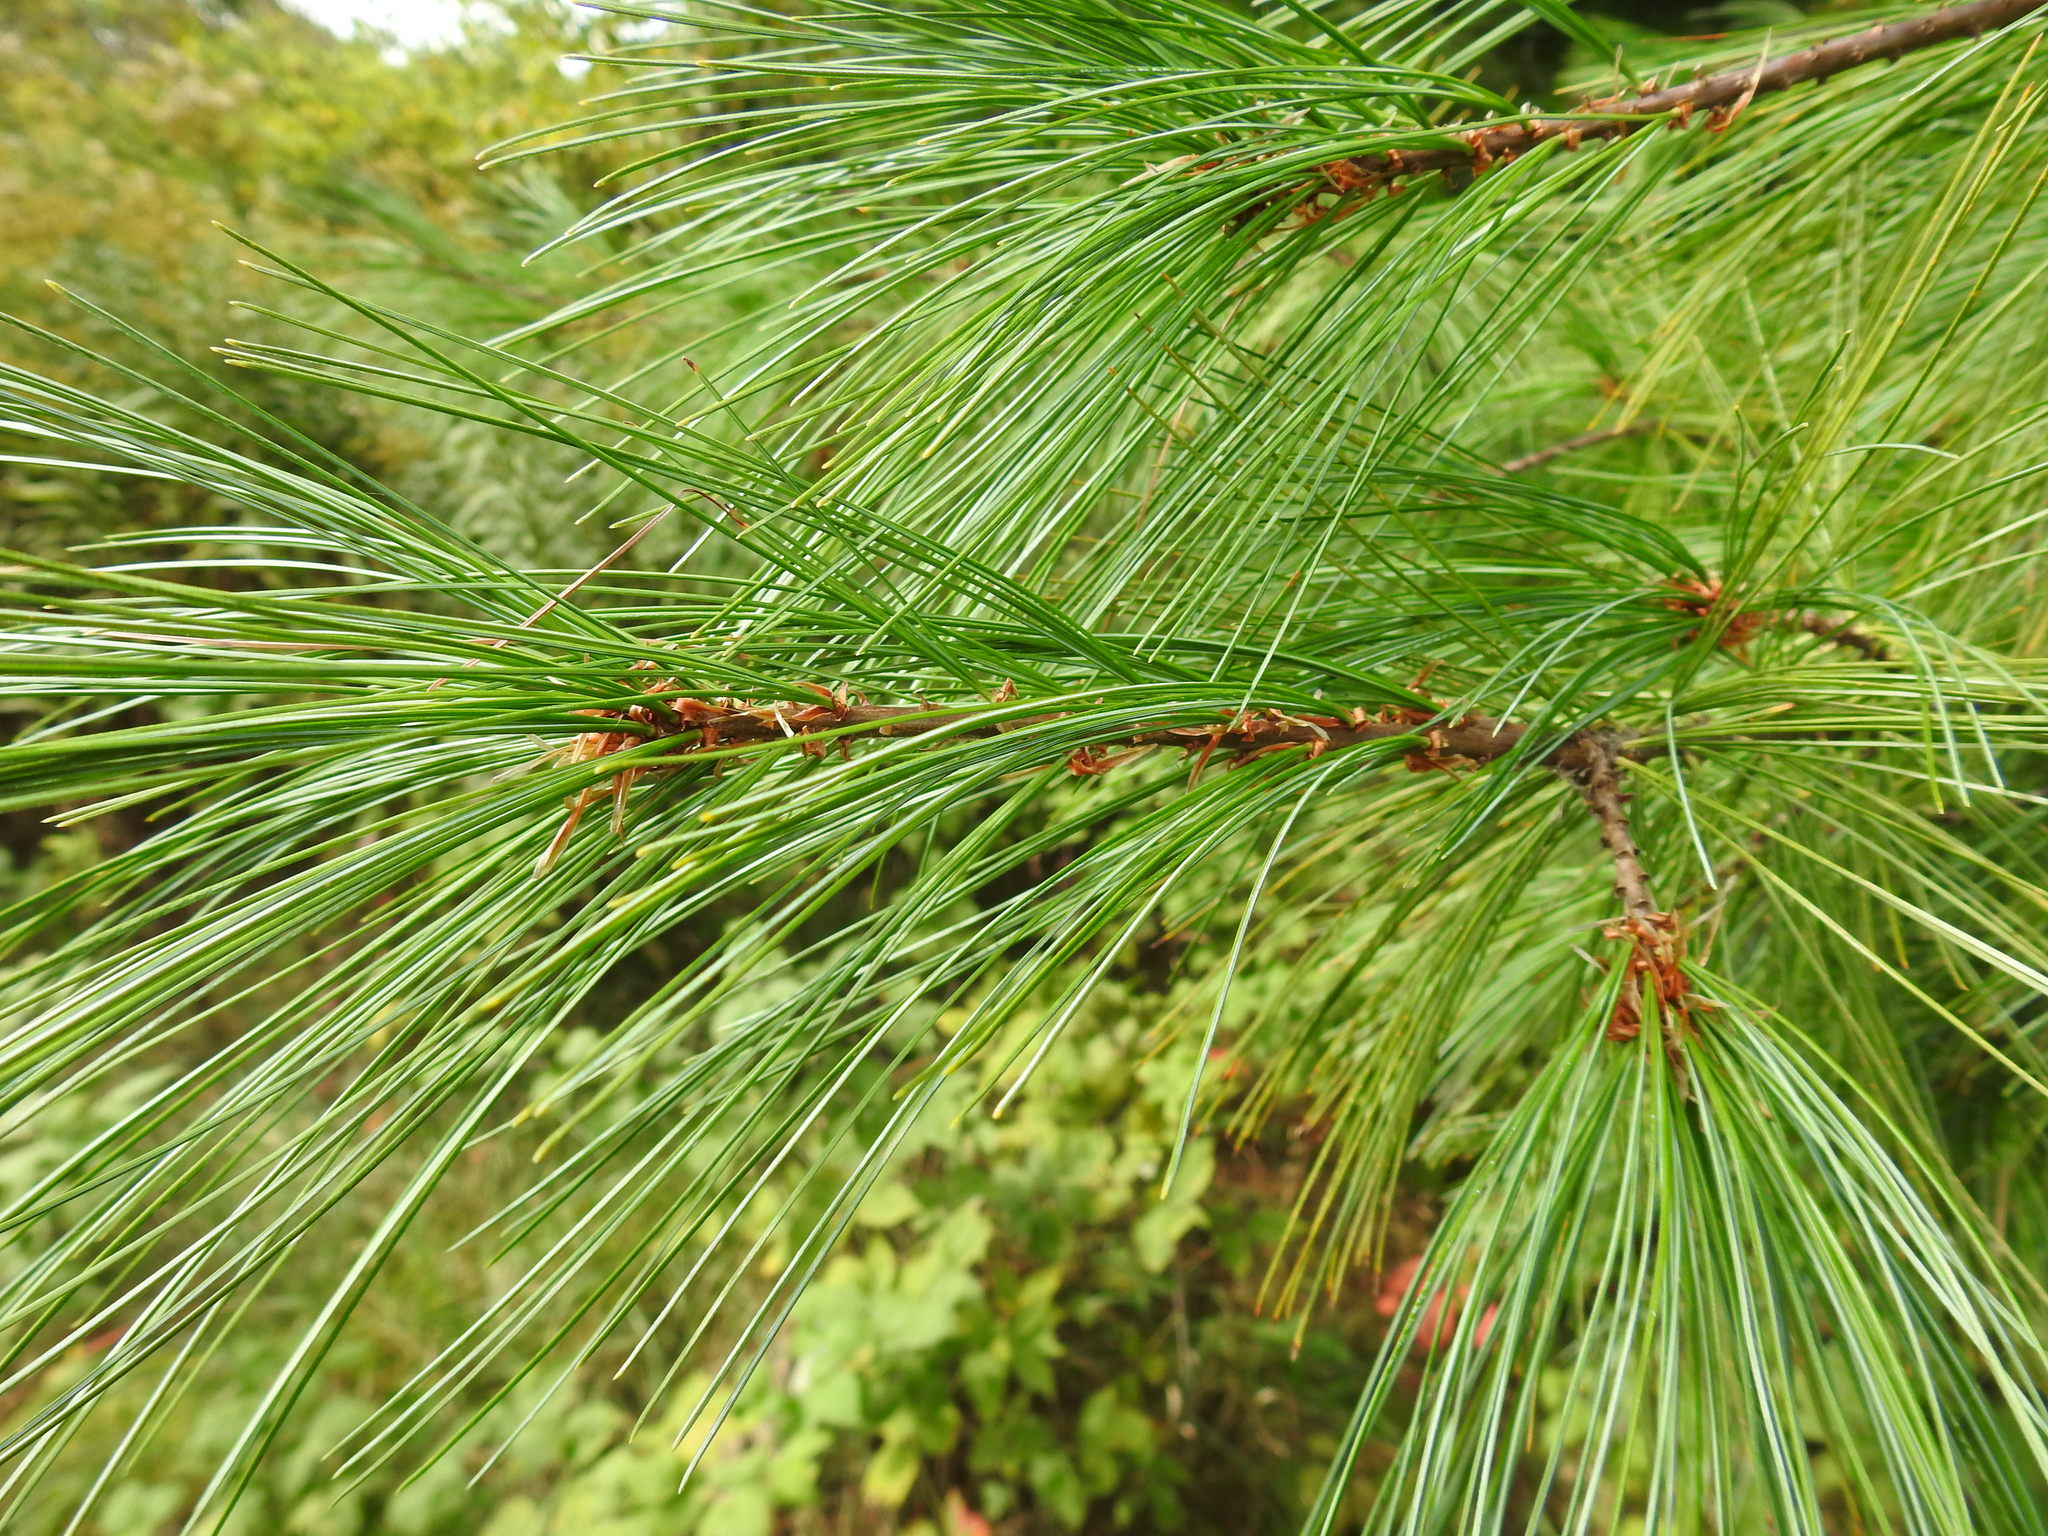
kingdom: Plantae
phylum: Tracheophyta
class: Pinopsida
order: Pinales
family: Pinaceae
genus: Pinus
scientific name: Pinus strobus
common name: Weymouth pine
